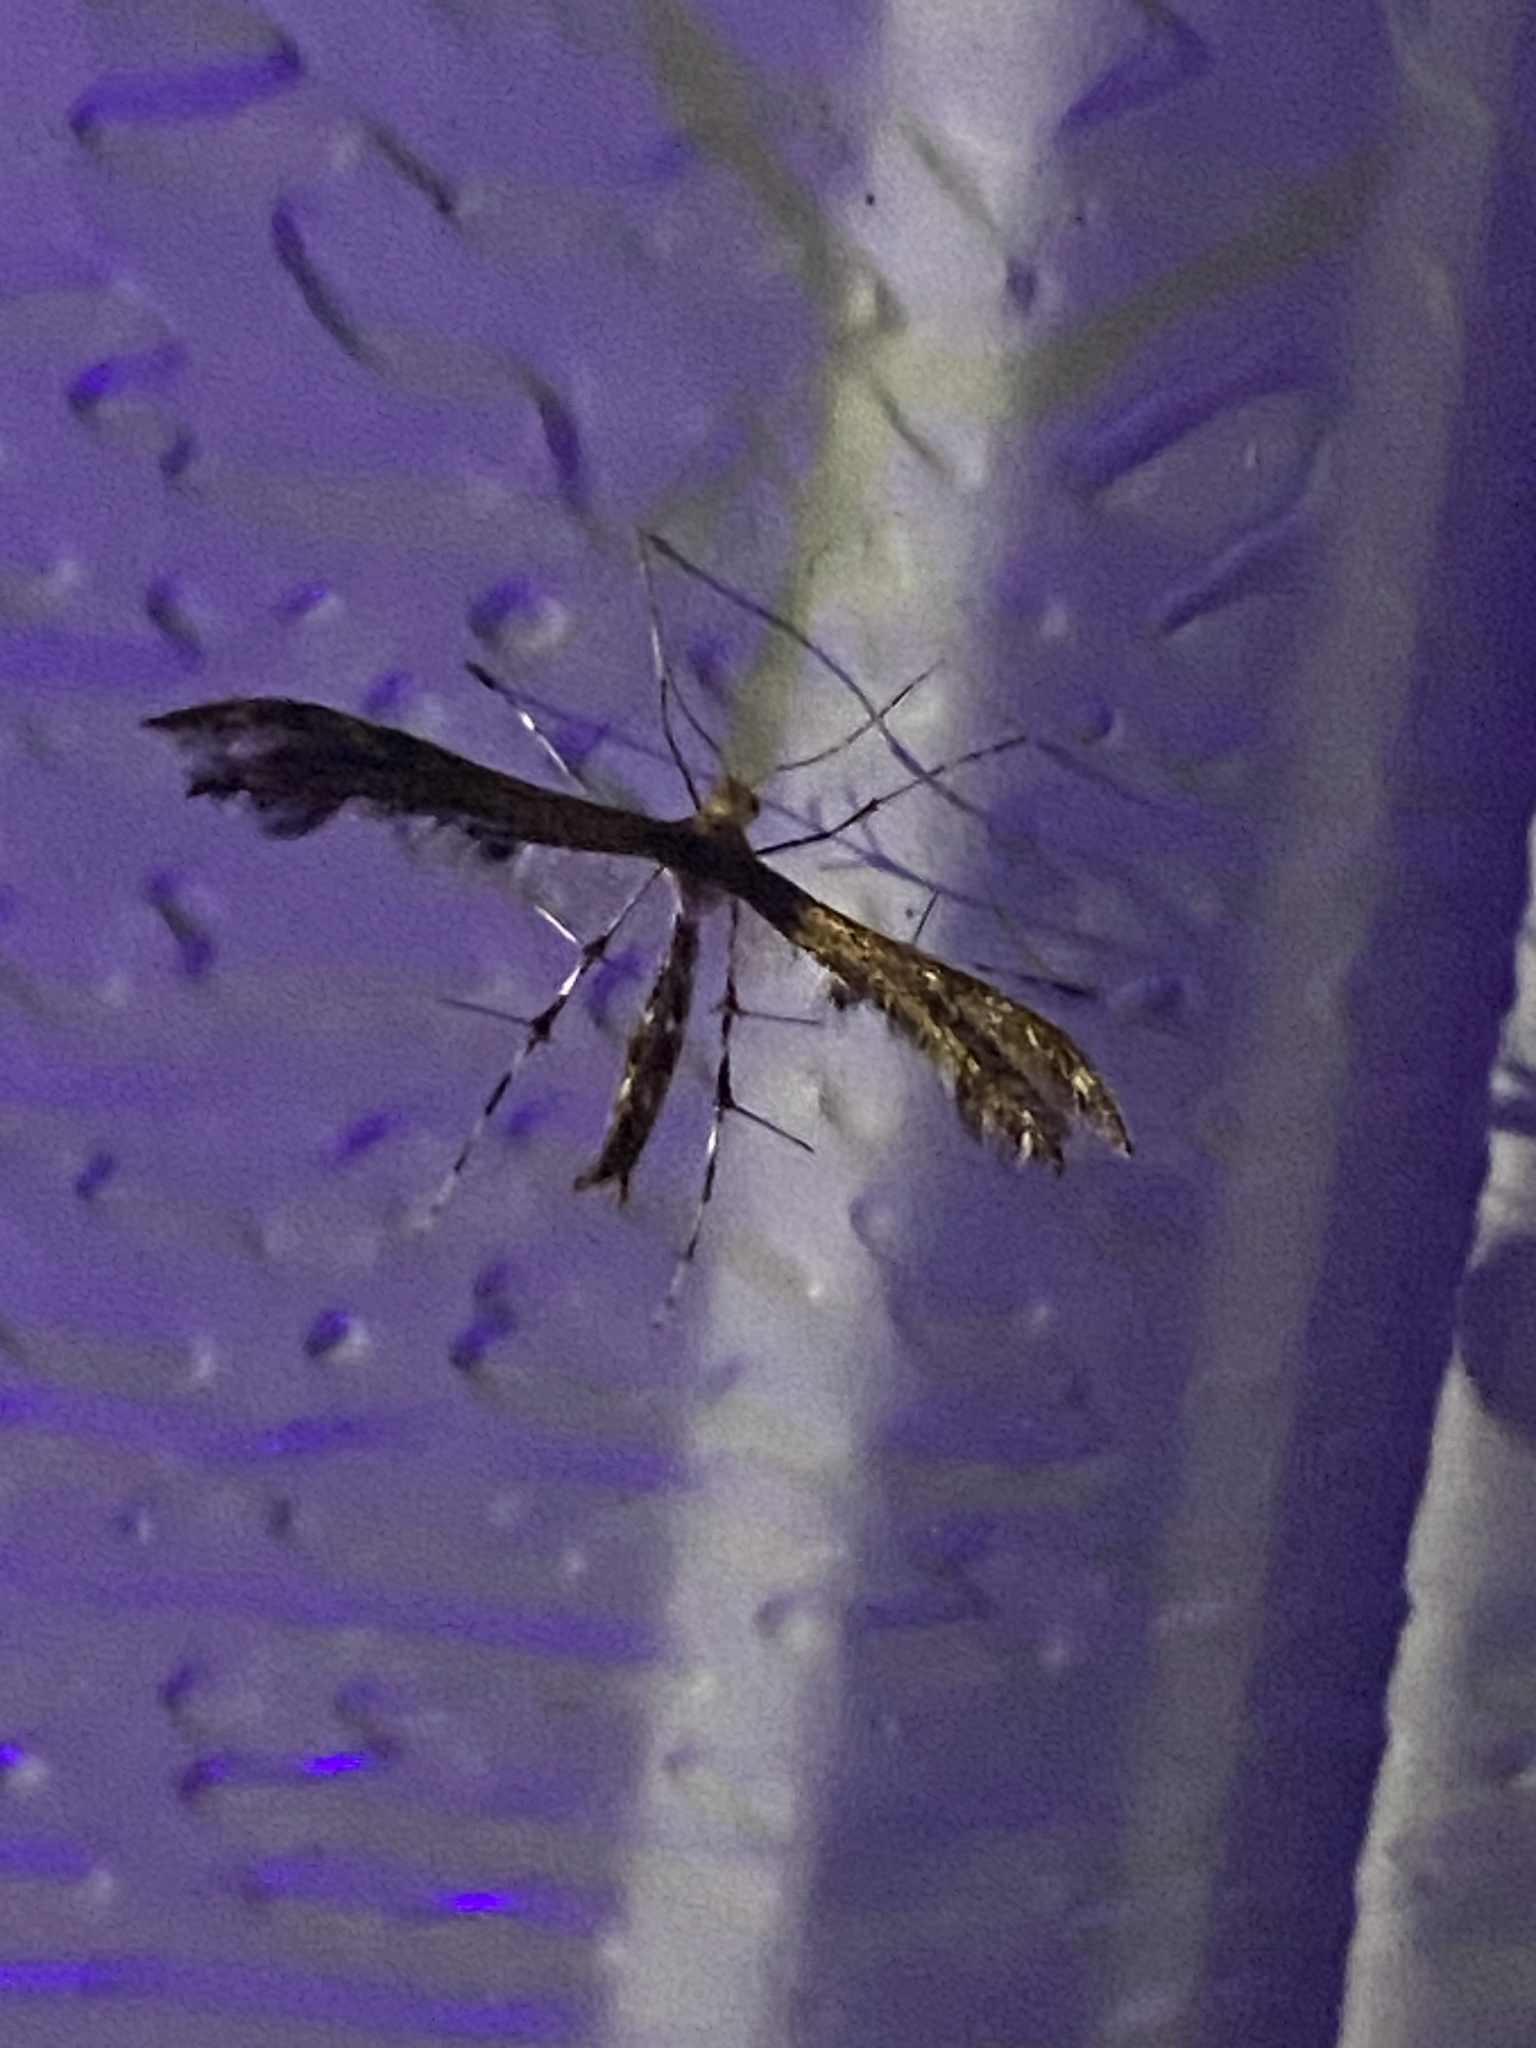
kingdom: Animalia
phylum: Arthropoda
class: Insecta
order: Lepidoptera
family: Pterophoridae
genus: Dejongia
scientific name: Dejongia lobidactylus
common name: Lobed plume moth
